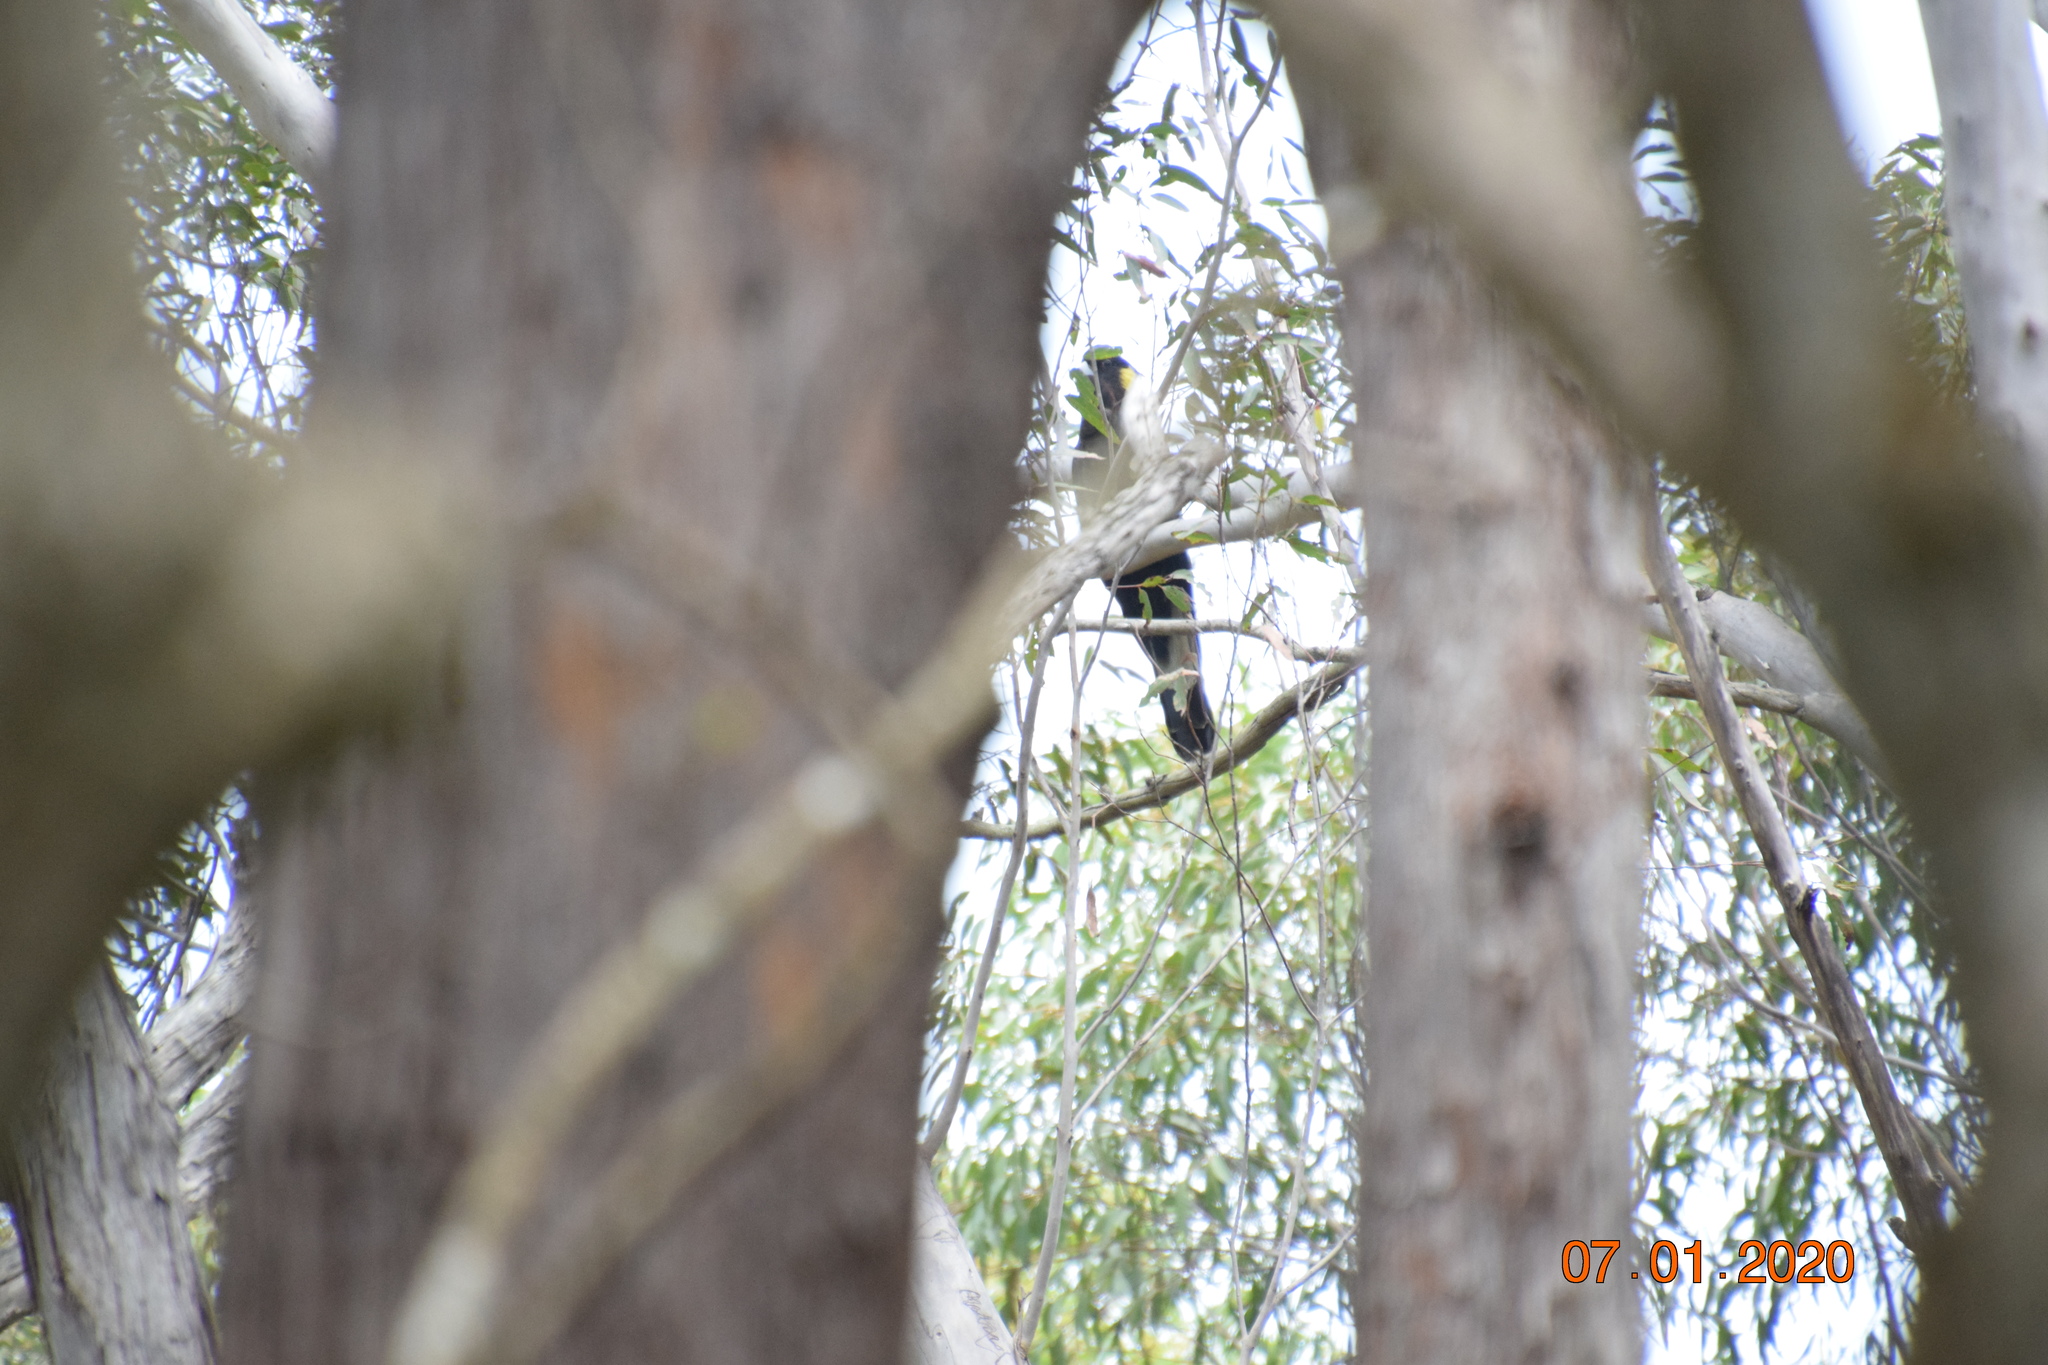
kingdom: Animalia
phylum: Chordata
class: Aves
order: Psittaciformes
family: Cacatuidae
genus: Zanda
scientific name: Zanda funerea
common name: Yellow-tailed black-cockatoo
